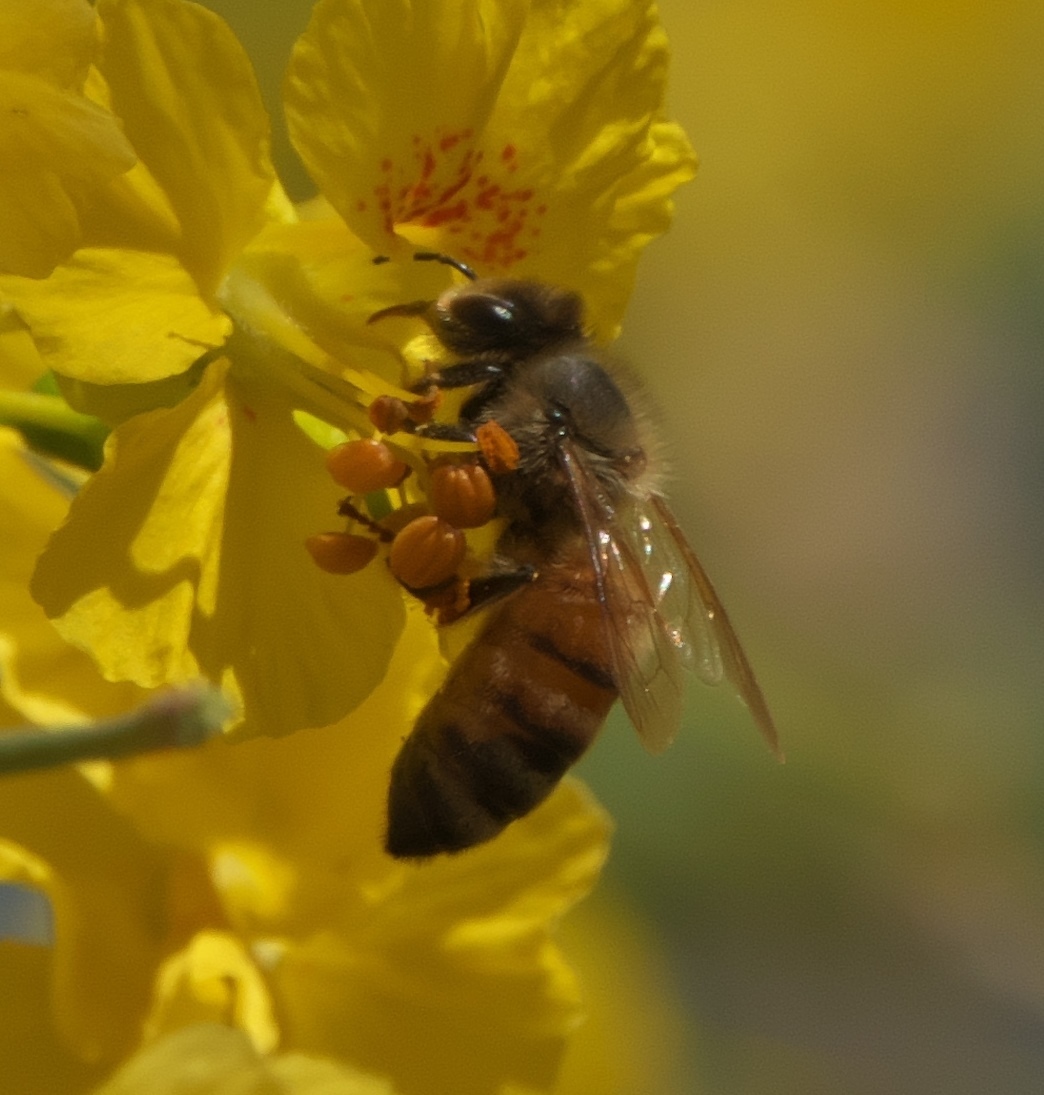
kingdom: Animalia
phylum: Arthropoda
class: Insecta
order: Hymenoptera
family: Apidae
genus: Apis
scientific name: Apis mellifera
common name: Honey bee
